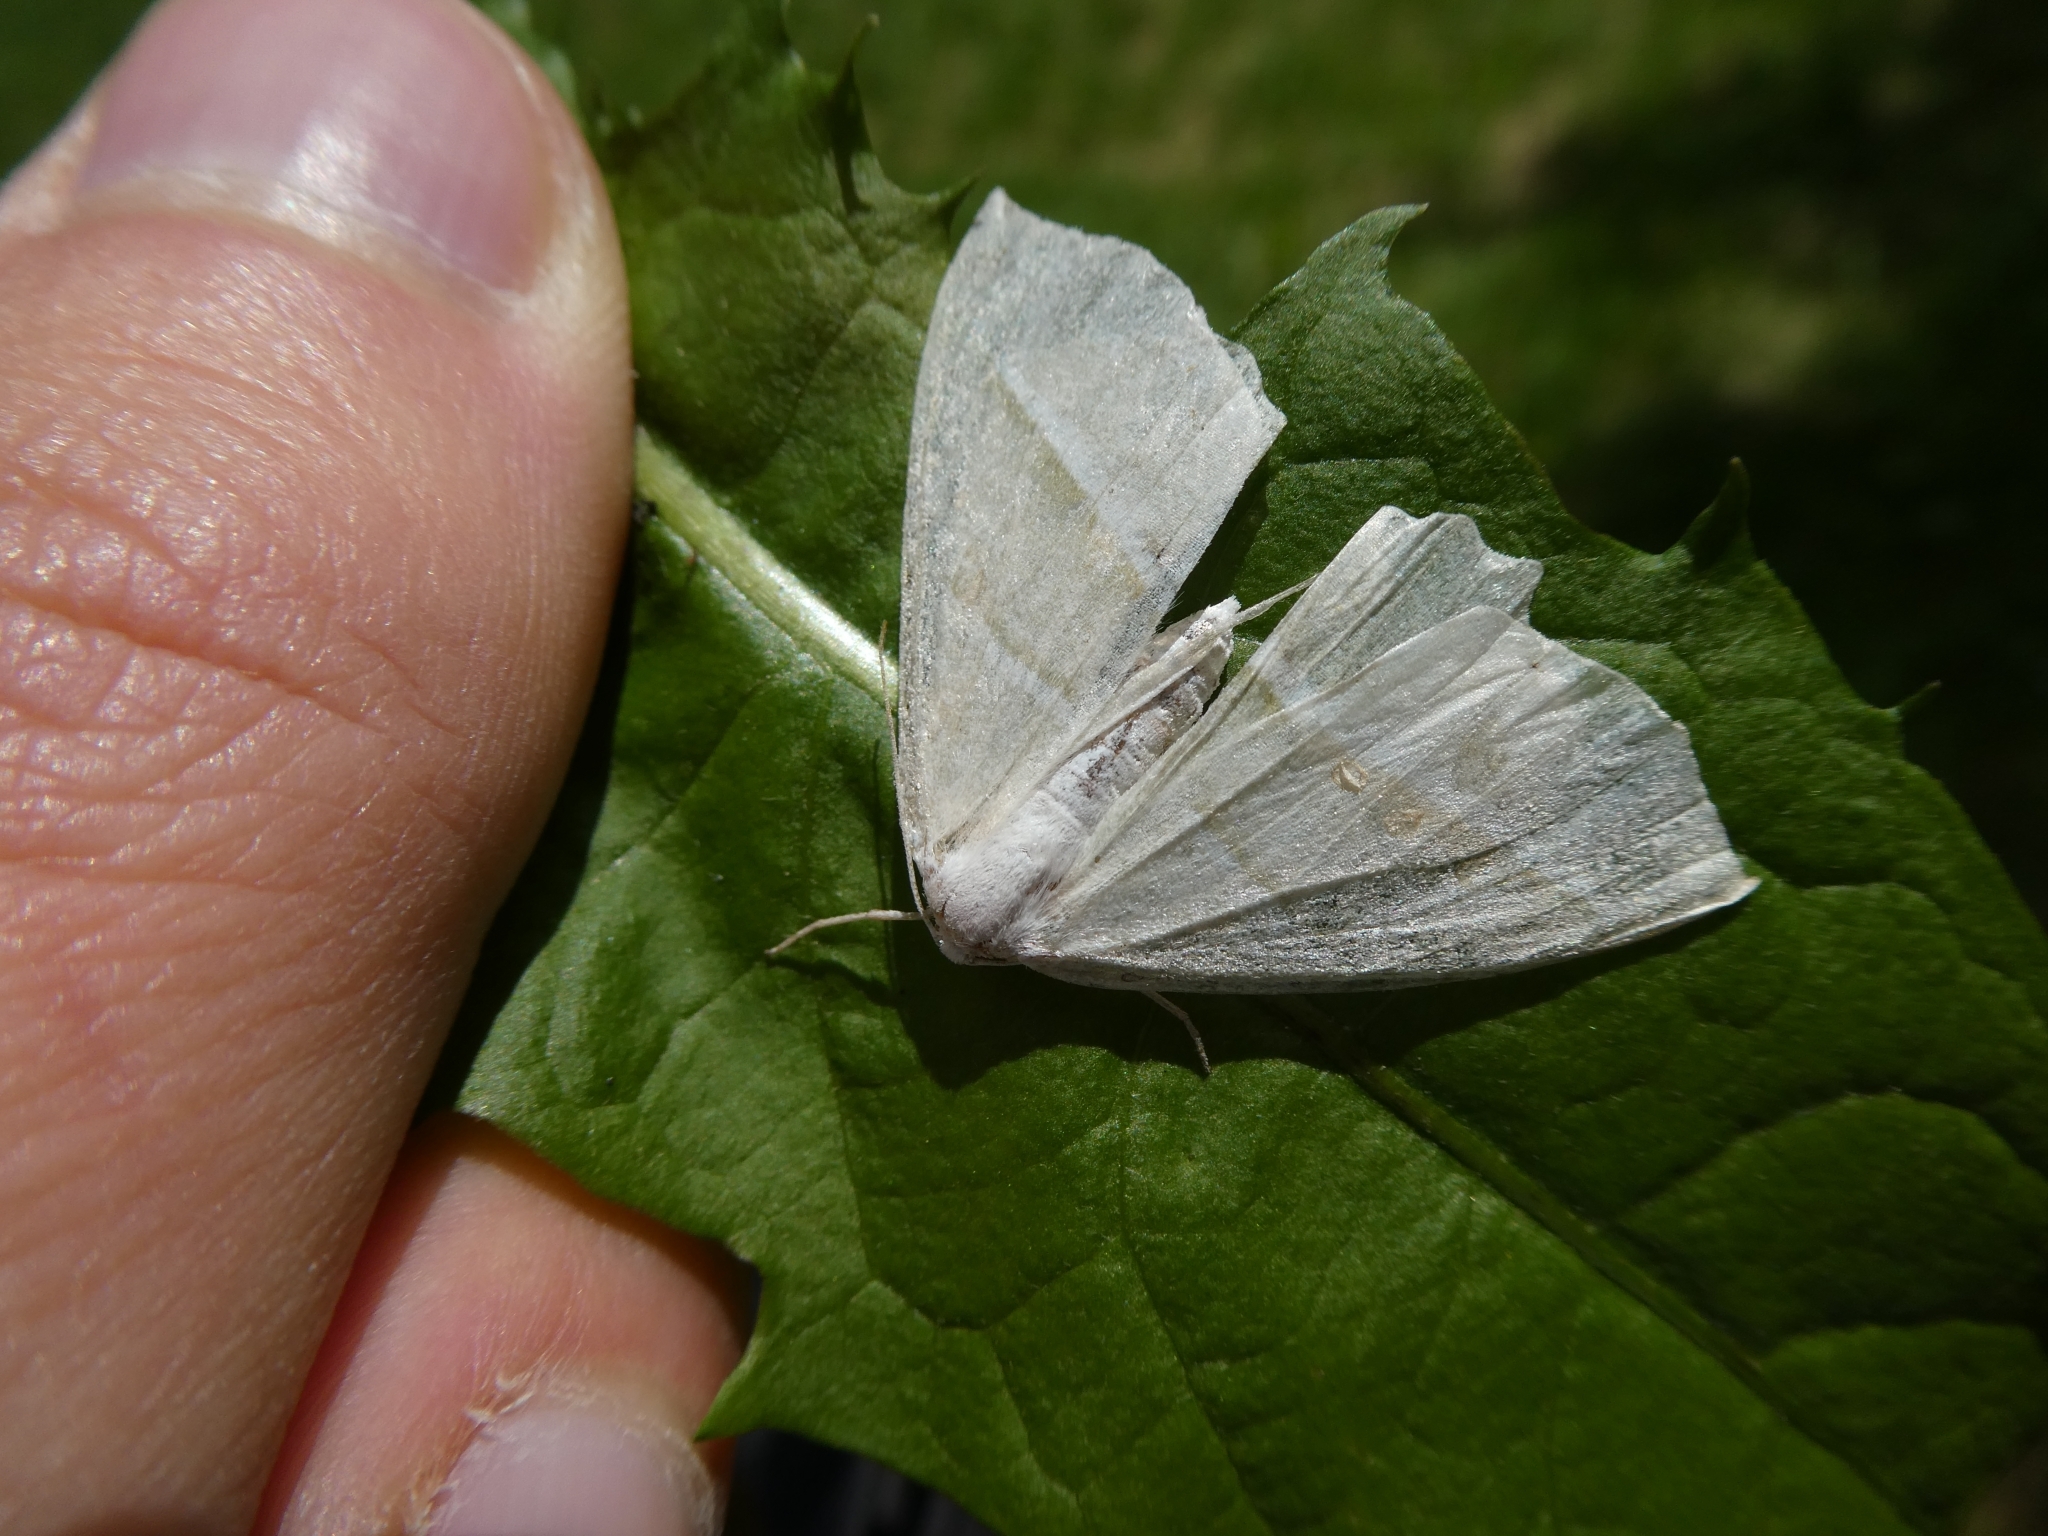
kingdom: Animalia
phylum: Arthropoda
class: Insecta
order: Lepidoptera
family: Geometridae
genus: Campaea
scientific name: Campaea margaritaria
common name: Light emerald
